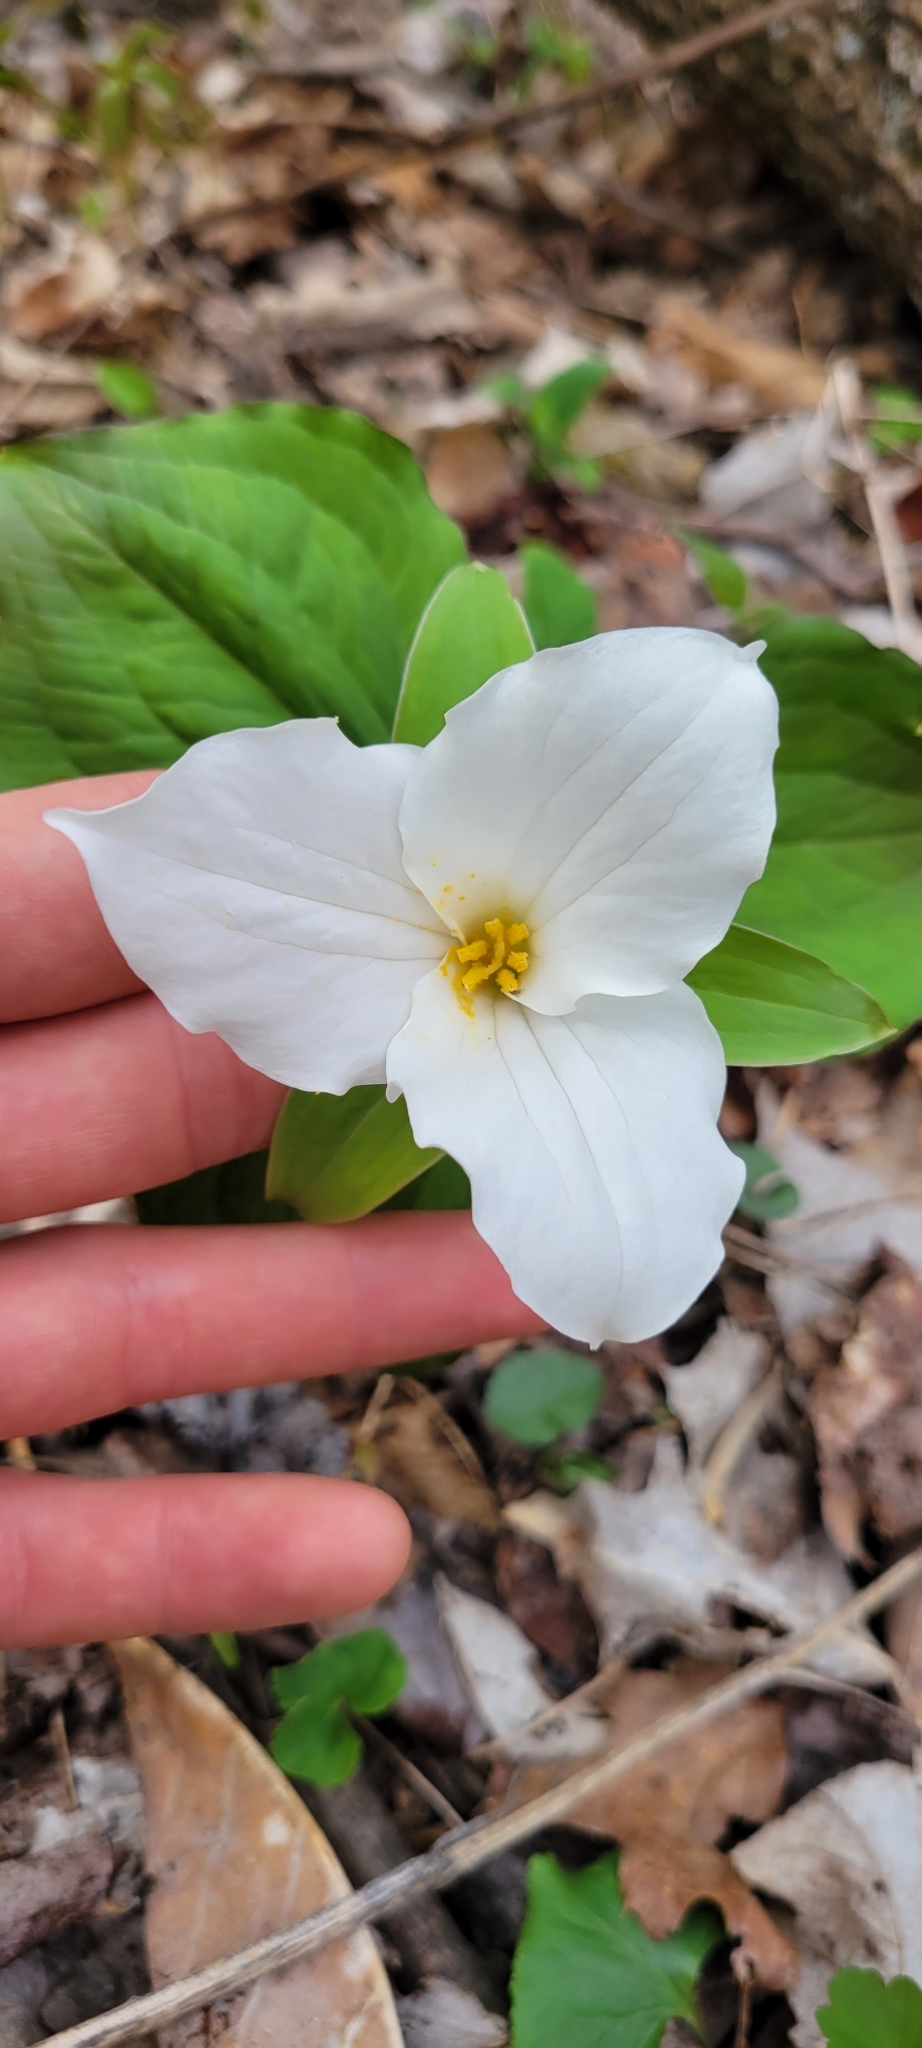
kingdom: Plantae
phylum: Tracheophyta
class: Liliopsida
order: Liliales
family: Melanthiaceae
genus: Trillium
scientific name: Trillium grandiflorum
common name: Great white trillium
